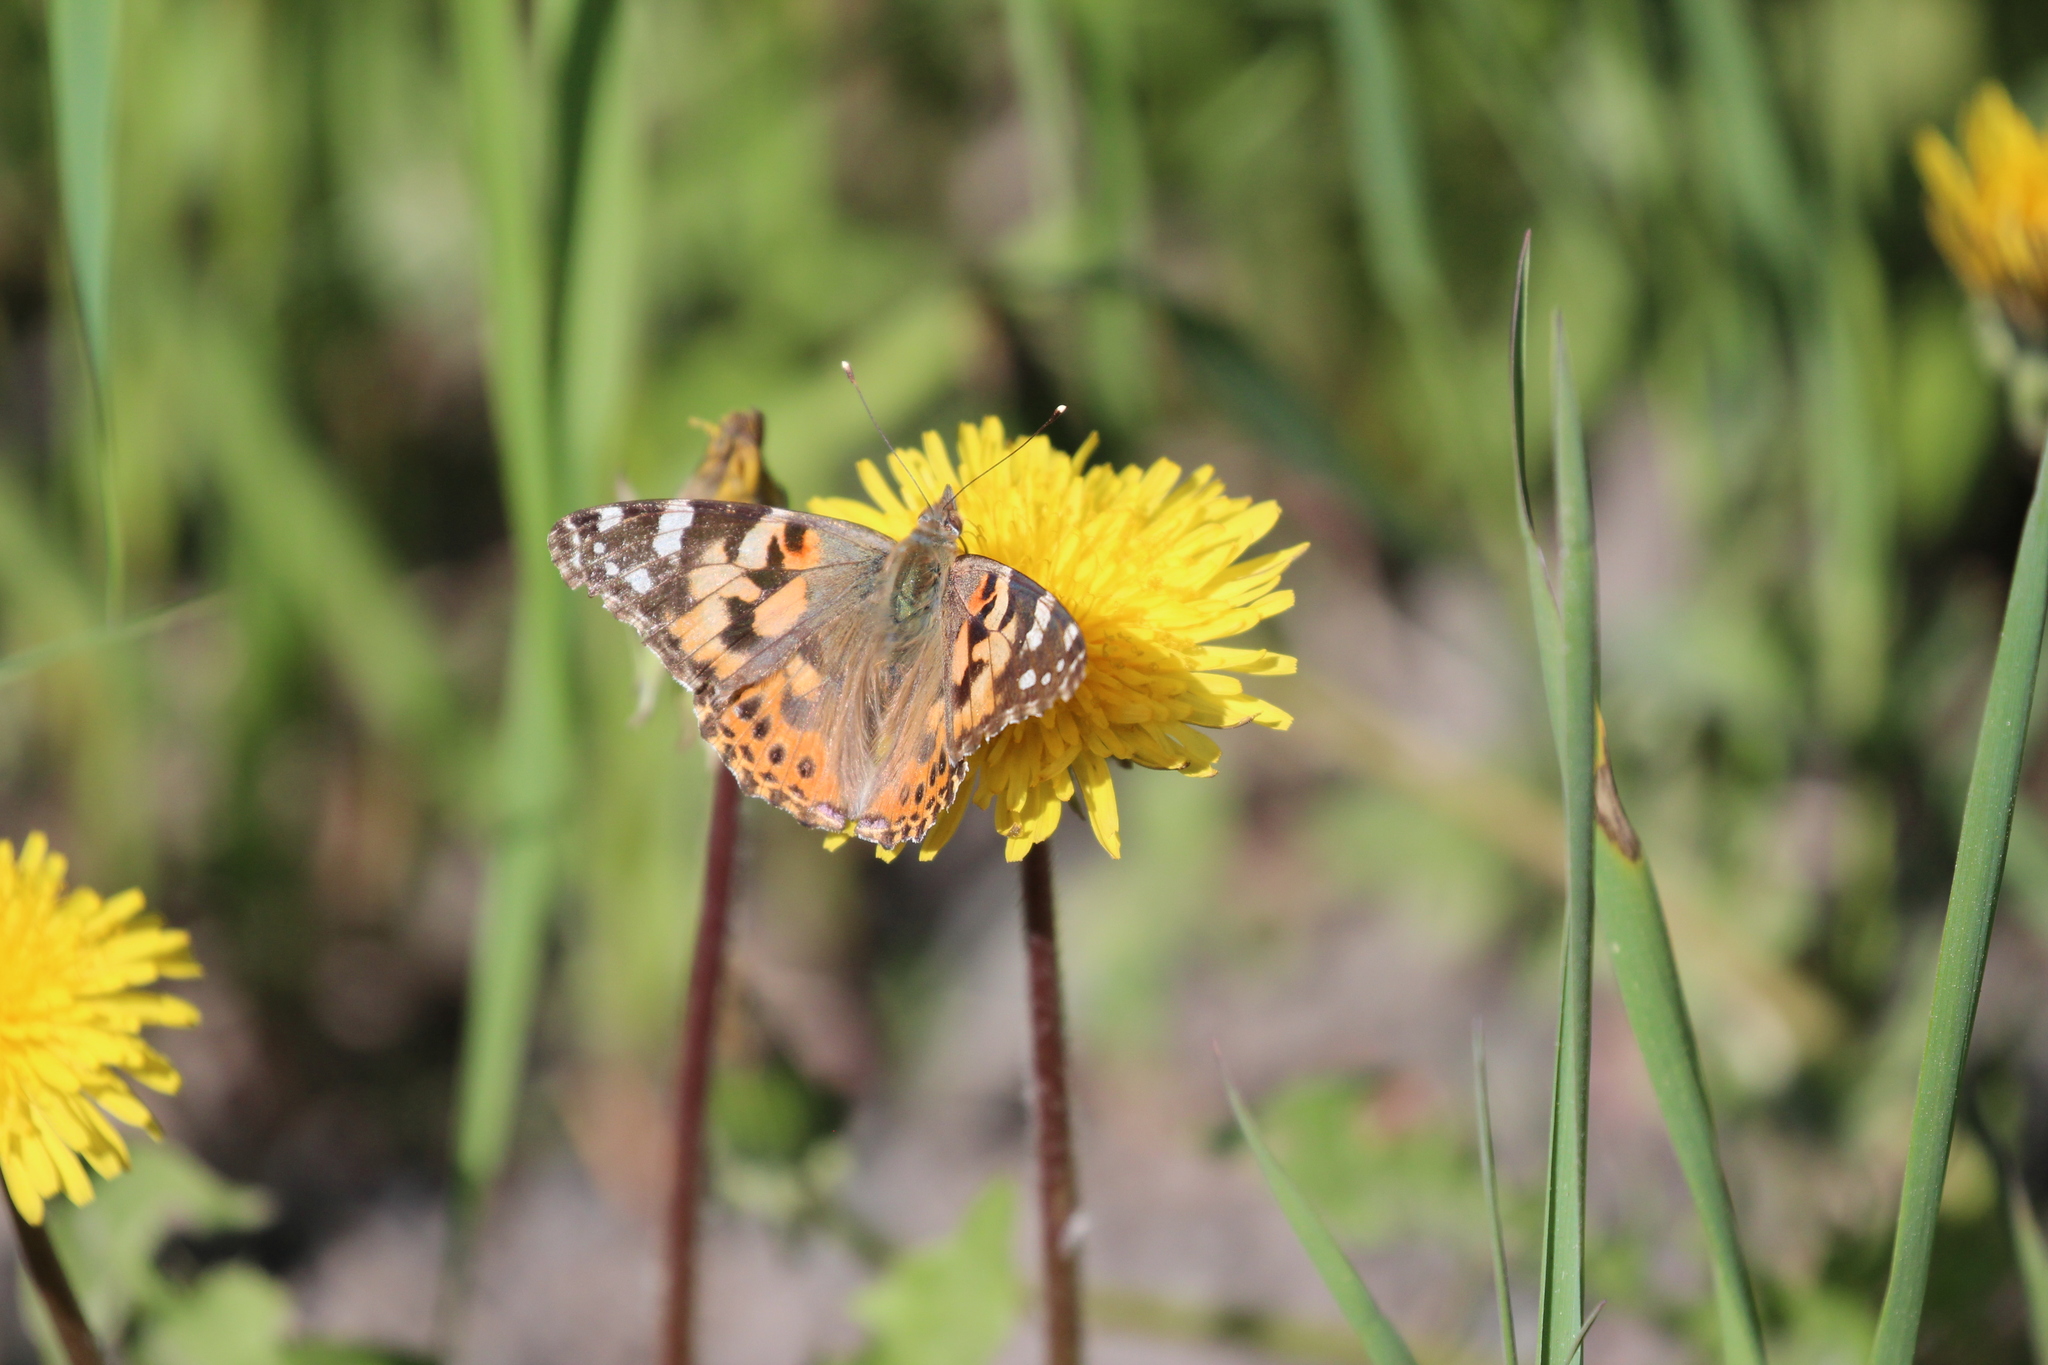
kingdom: Animalia
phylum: Arthropoda
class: Insecta
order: Lepidoptera
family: Nymphalidae
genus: Vanessa
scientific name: Vanessa cardui
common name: Painted lady
